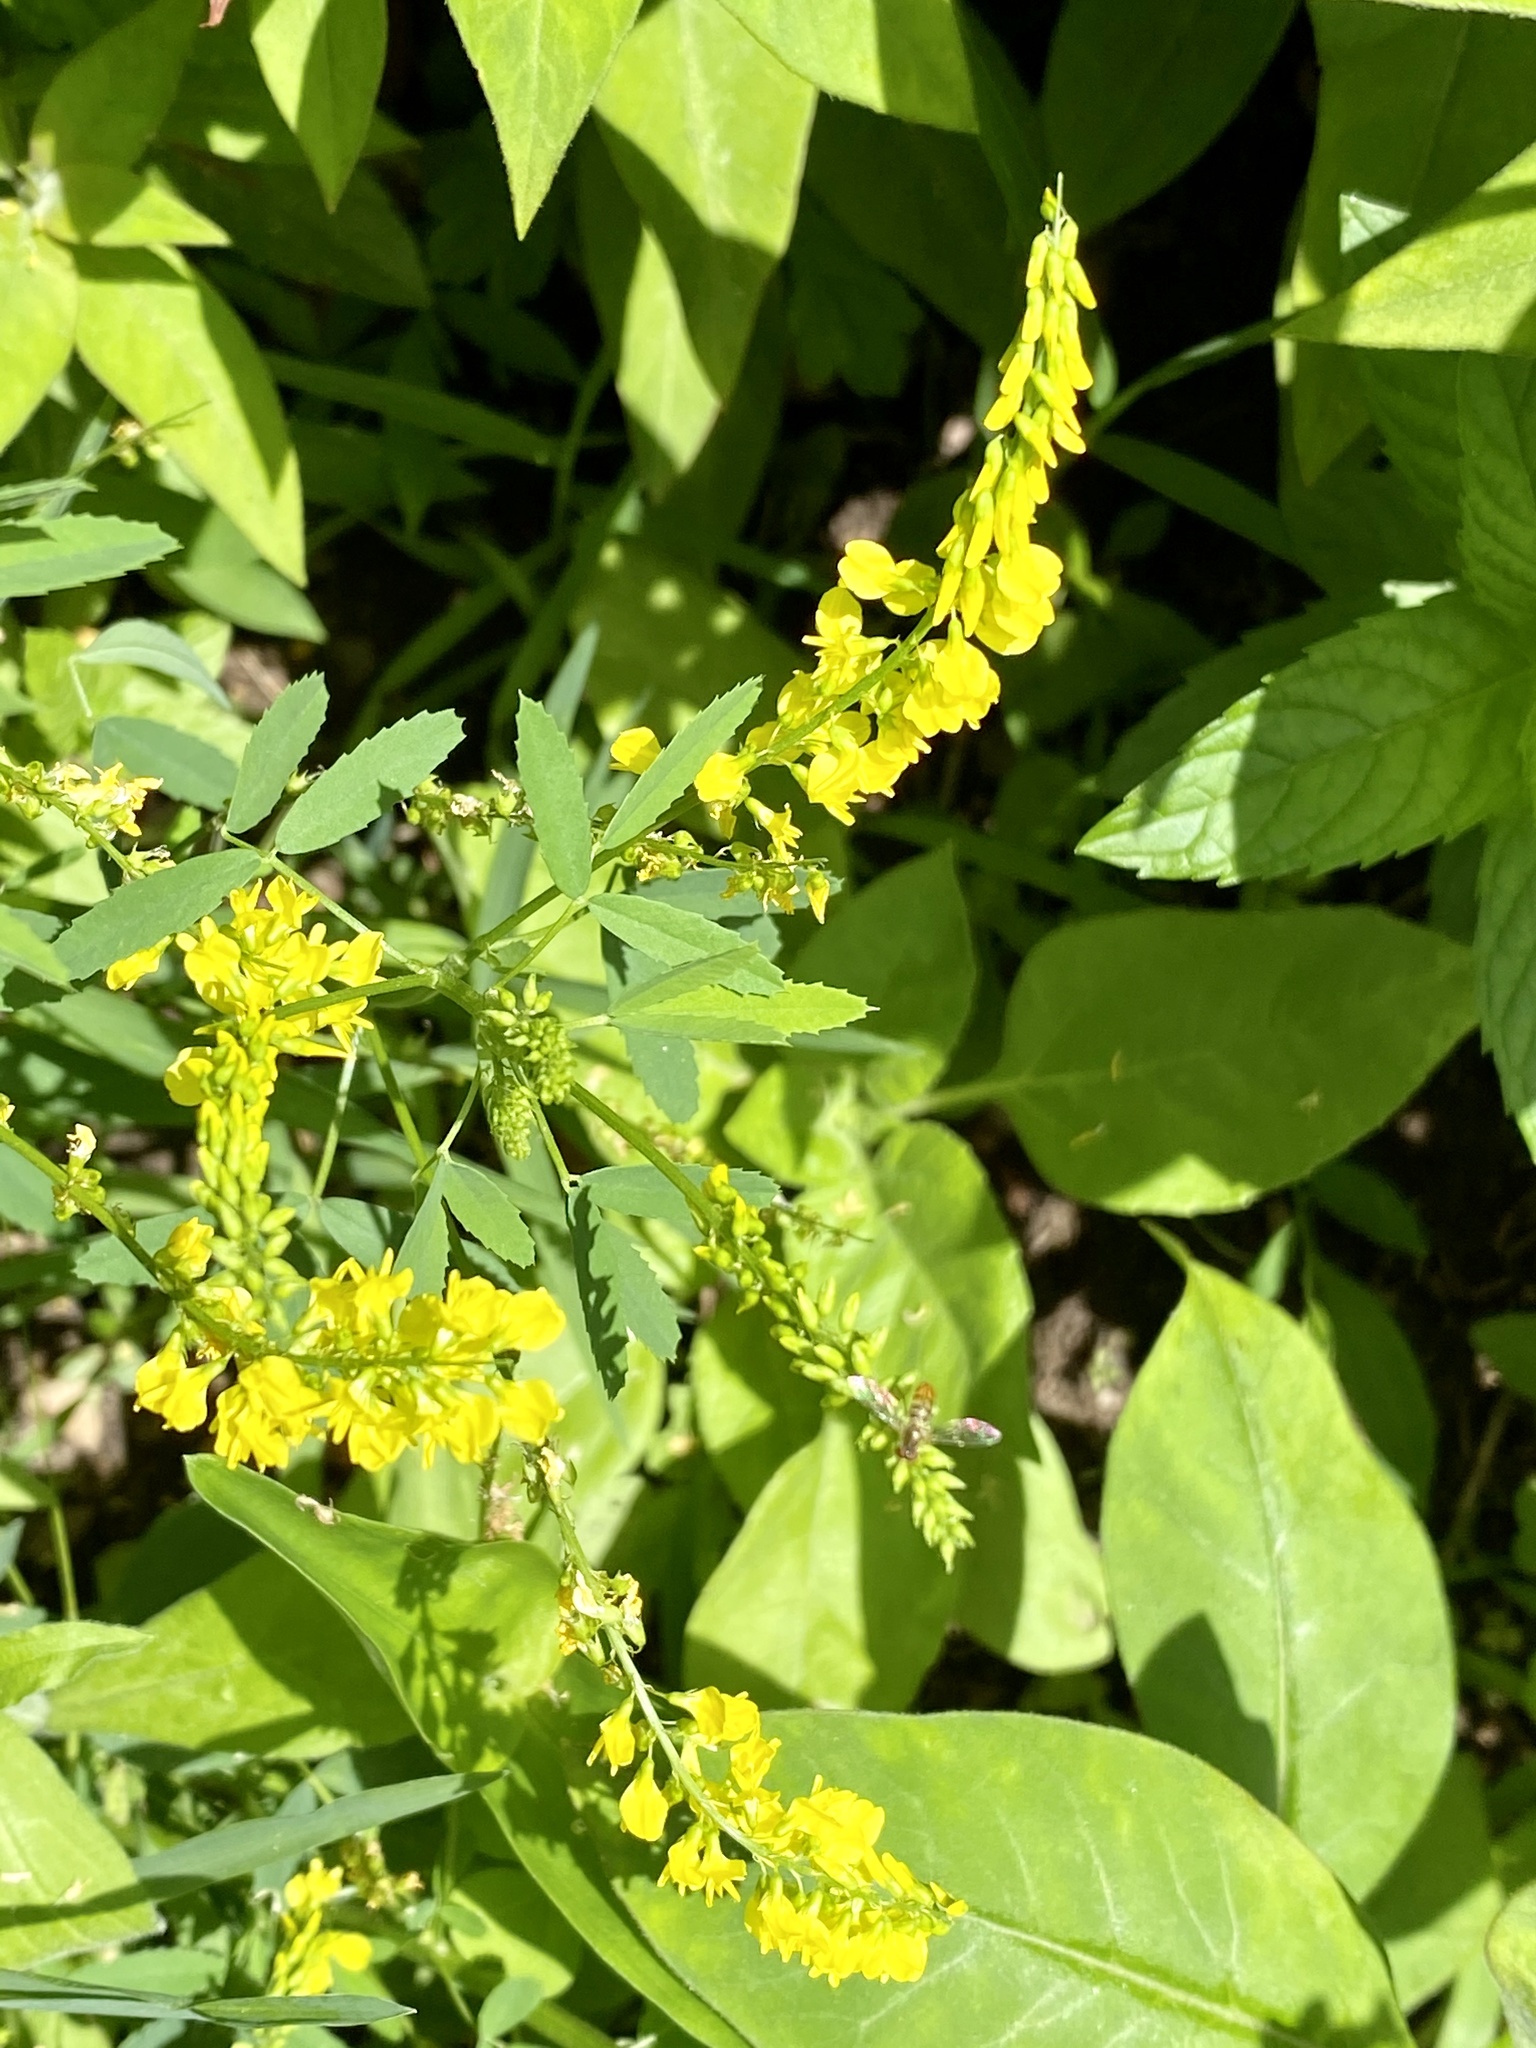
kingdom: Plantae
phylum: Tracheophyta
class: Magnoliopsida
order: Fabales
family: Fabaceae
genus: Melilotus
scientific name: Melilotus officinalis
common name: Sweetclover
